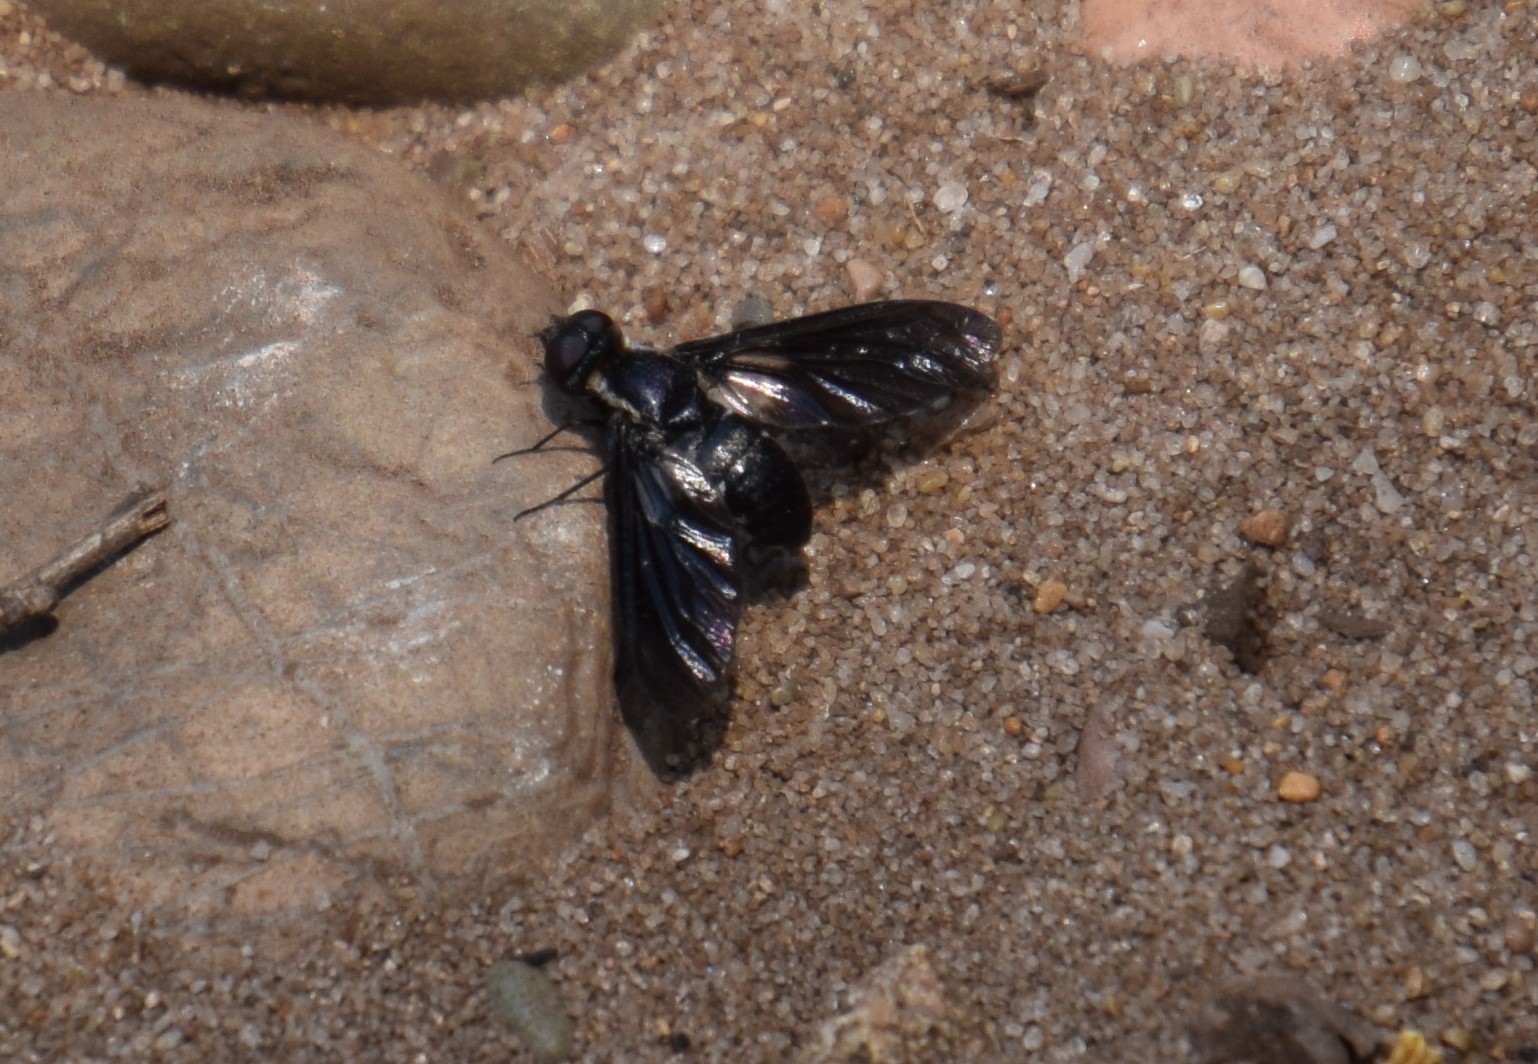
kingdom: Animalia
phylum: Arthropoda
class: Insecta
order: Diptera
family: Bombyliidae
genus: Pseudopenthes
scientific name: Pseudopenthes fenestrata
